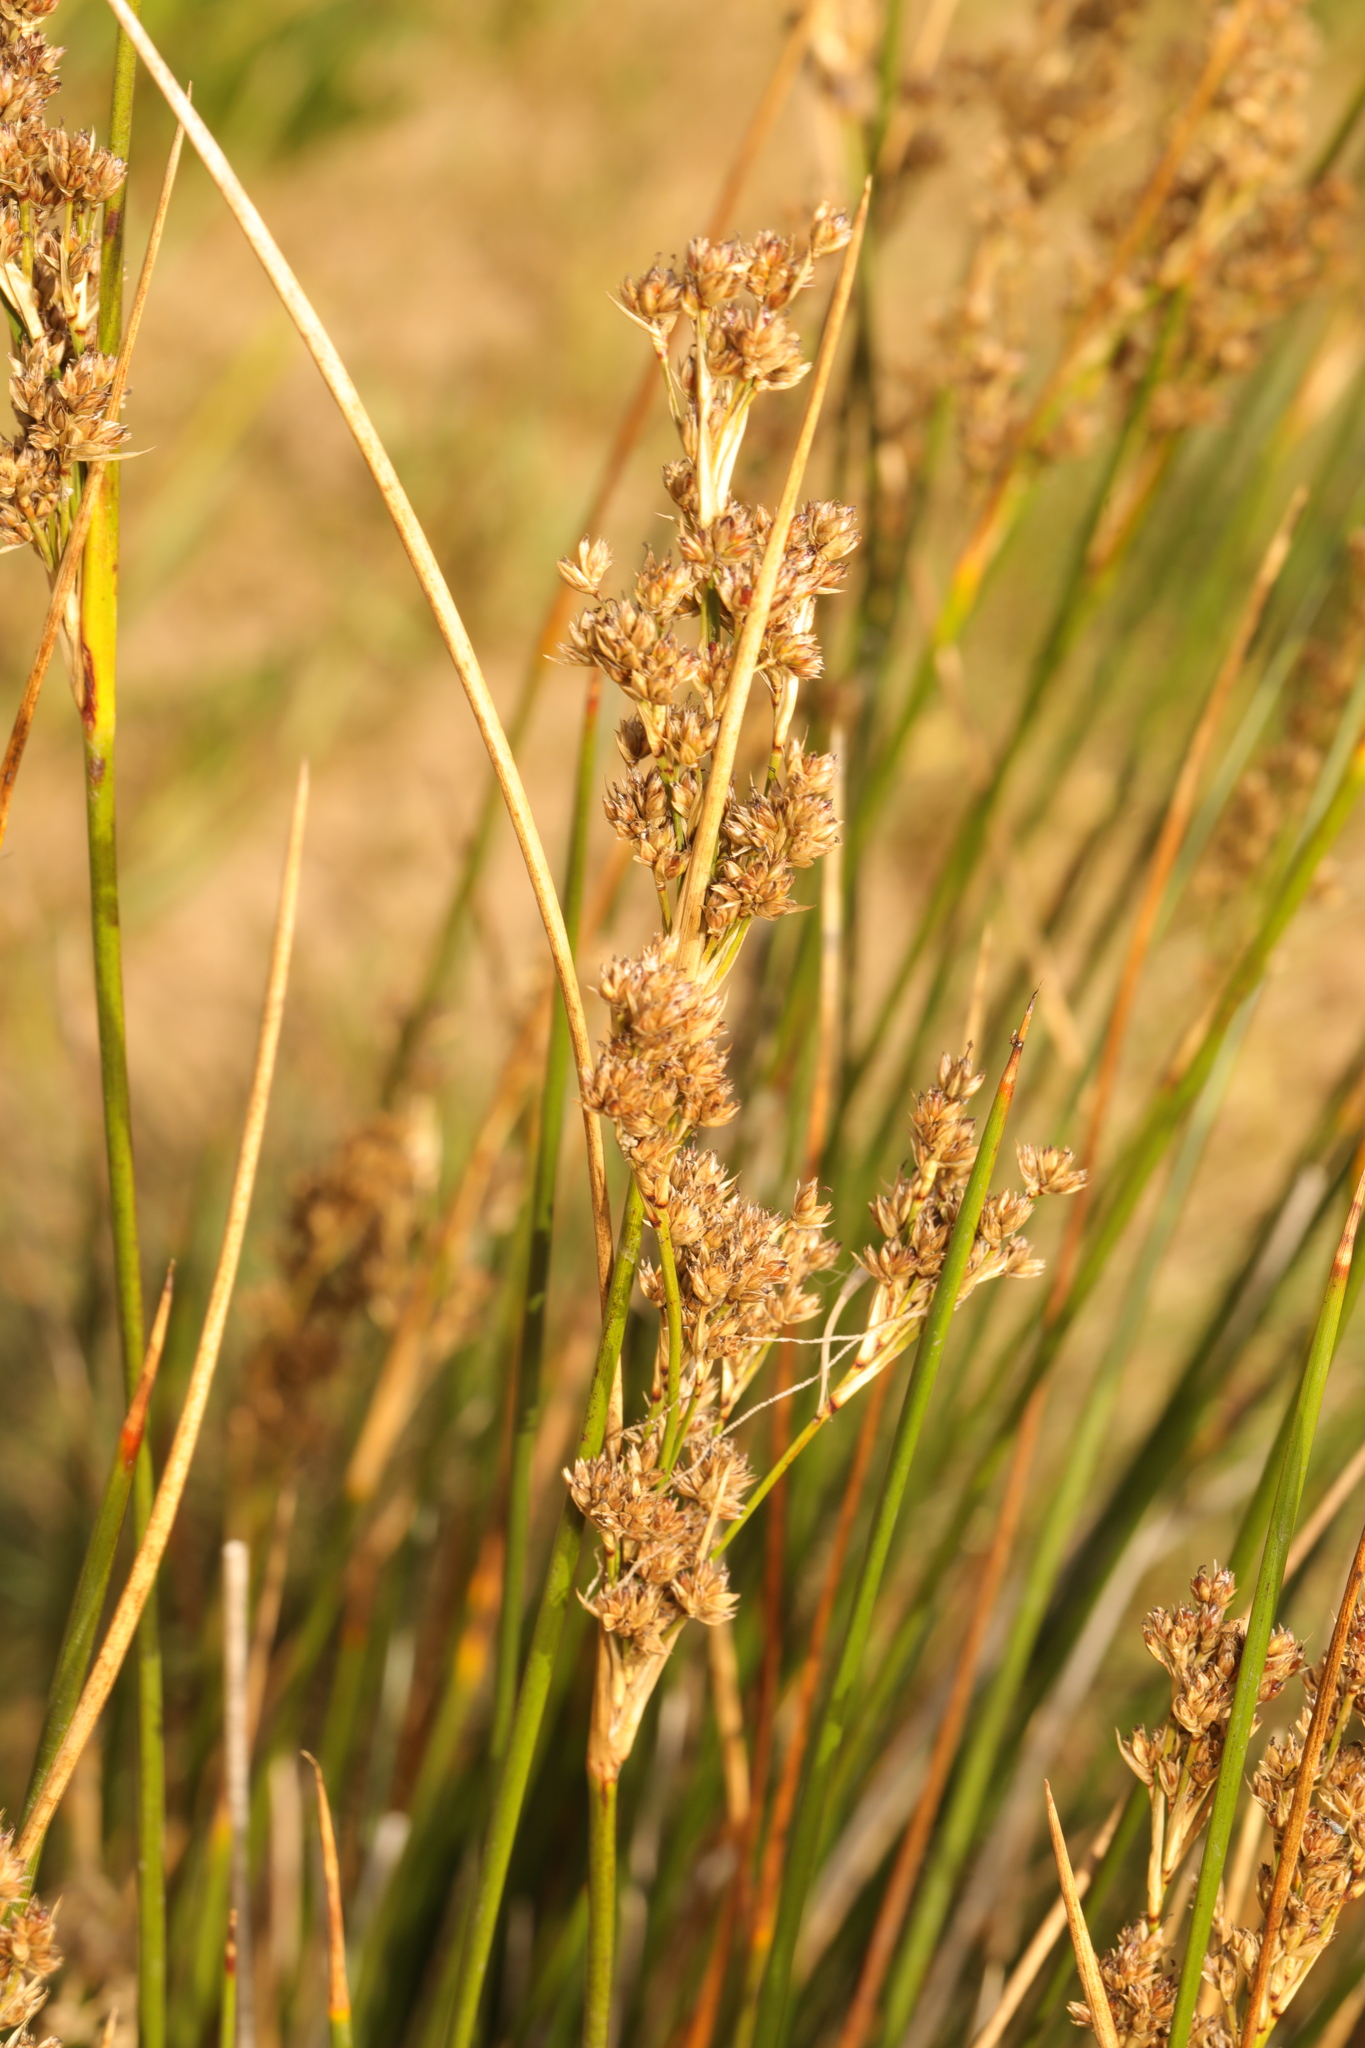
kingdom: Plantae
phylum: Tracheophyta
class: Liliopsida
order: Poales
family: Juncaceae
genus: Juncus
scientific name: Juncus maritimus
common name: Sea rush
